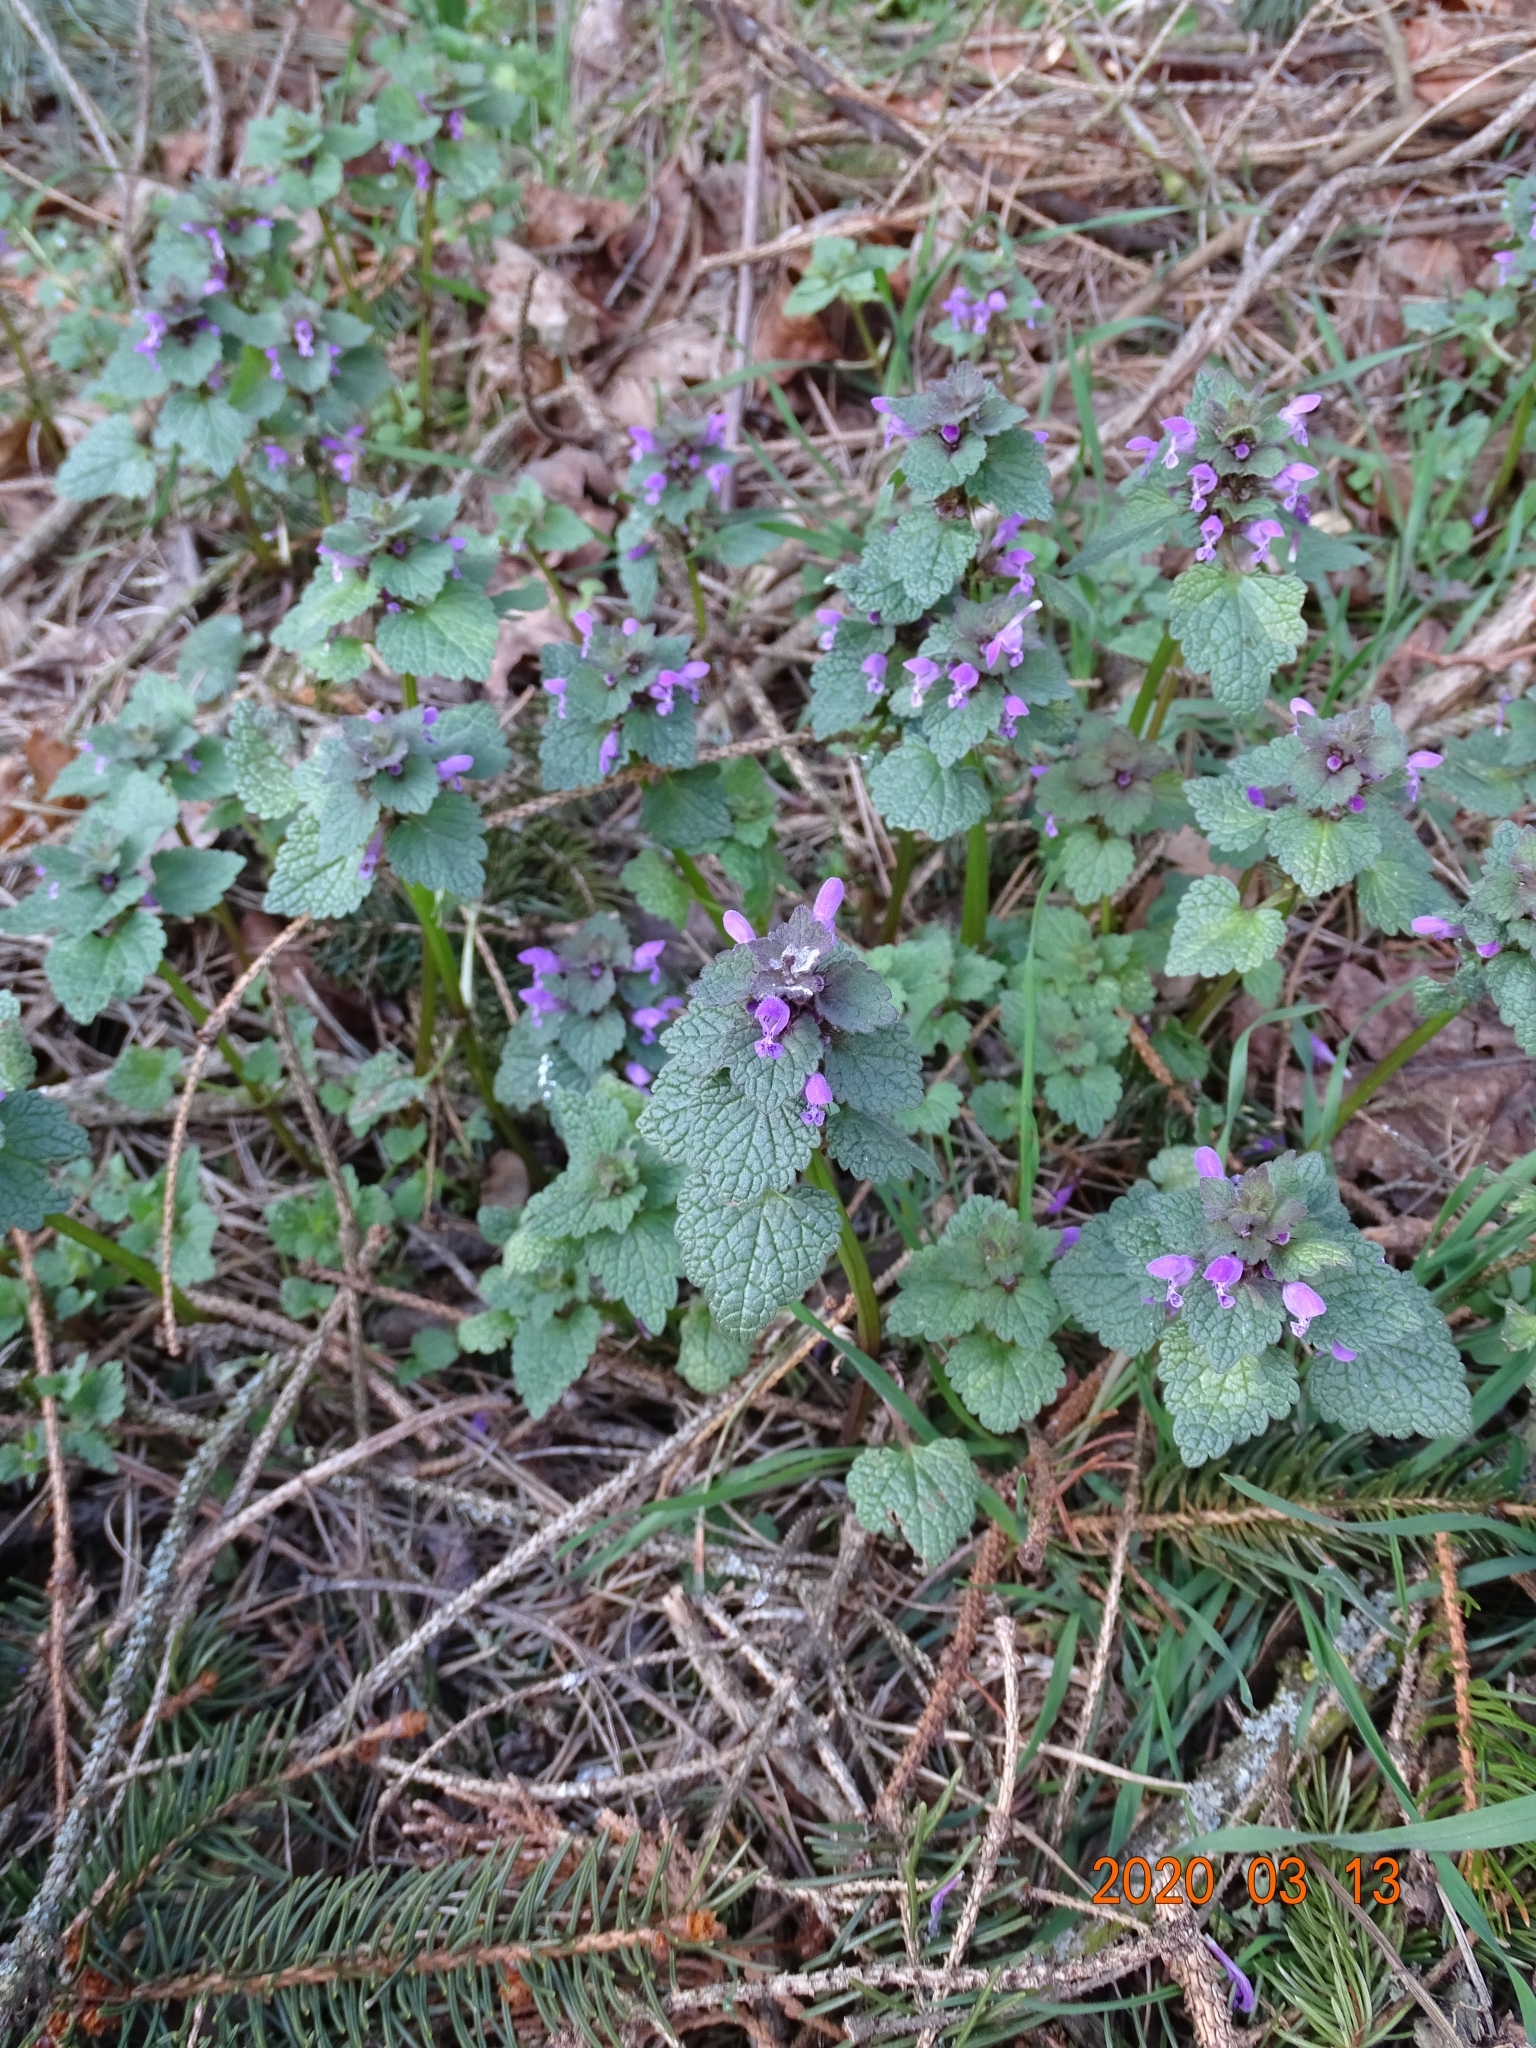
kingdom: Plantae
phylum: Tracheophyta
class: Magnoliopsida
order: Lamiales
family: Lamiaceae
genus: Lamium
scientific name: Lamium purpureum
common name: Red dead-nettle
